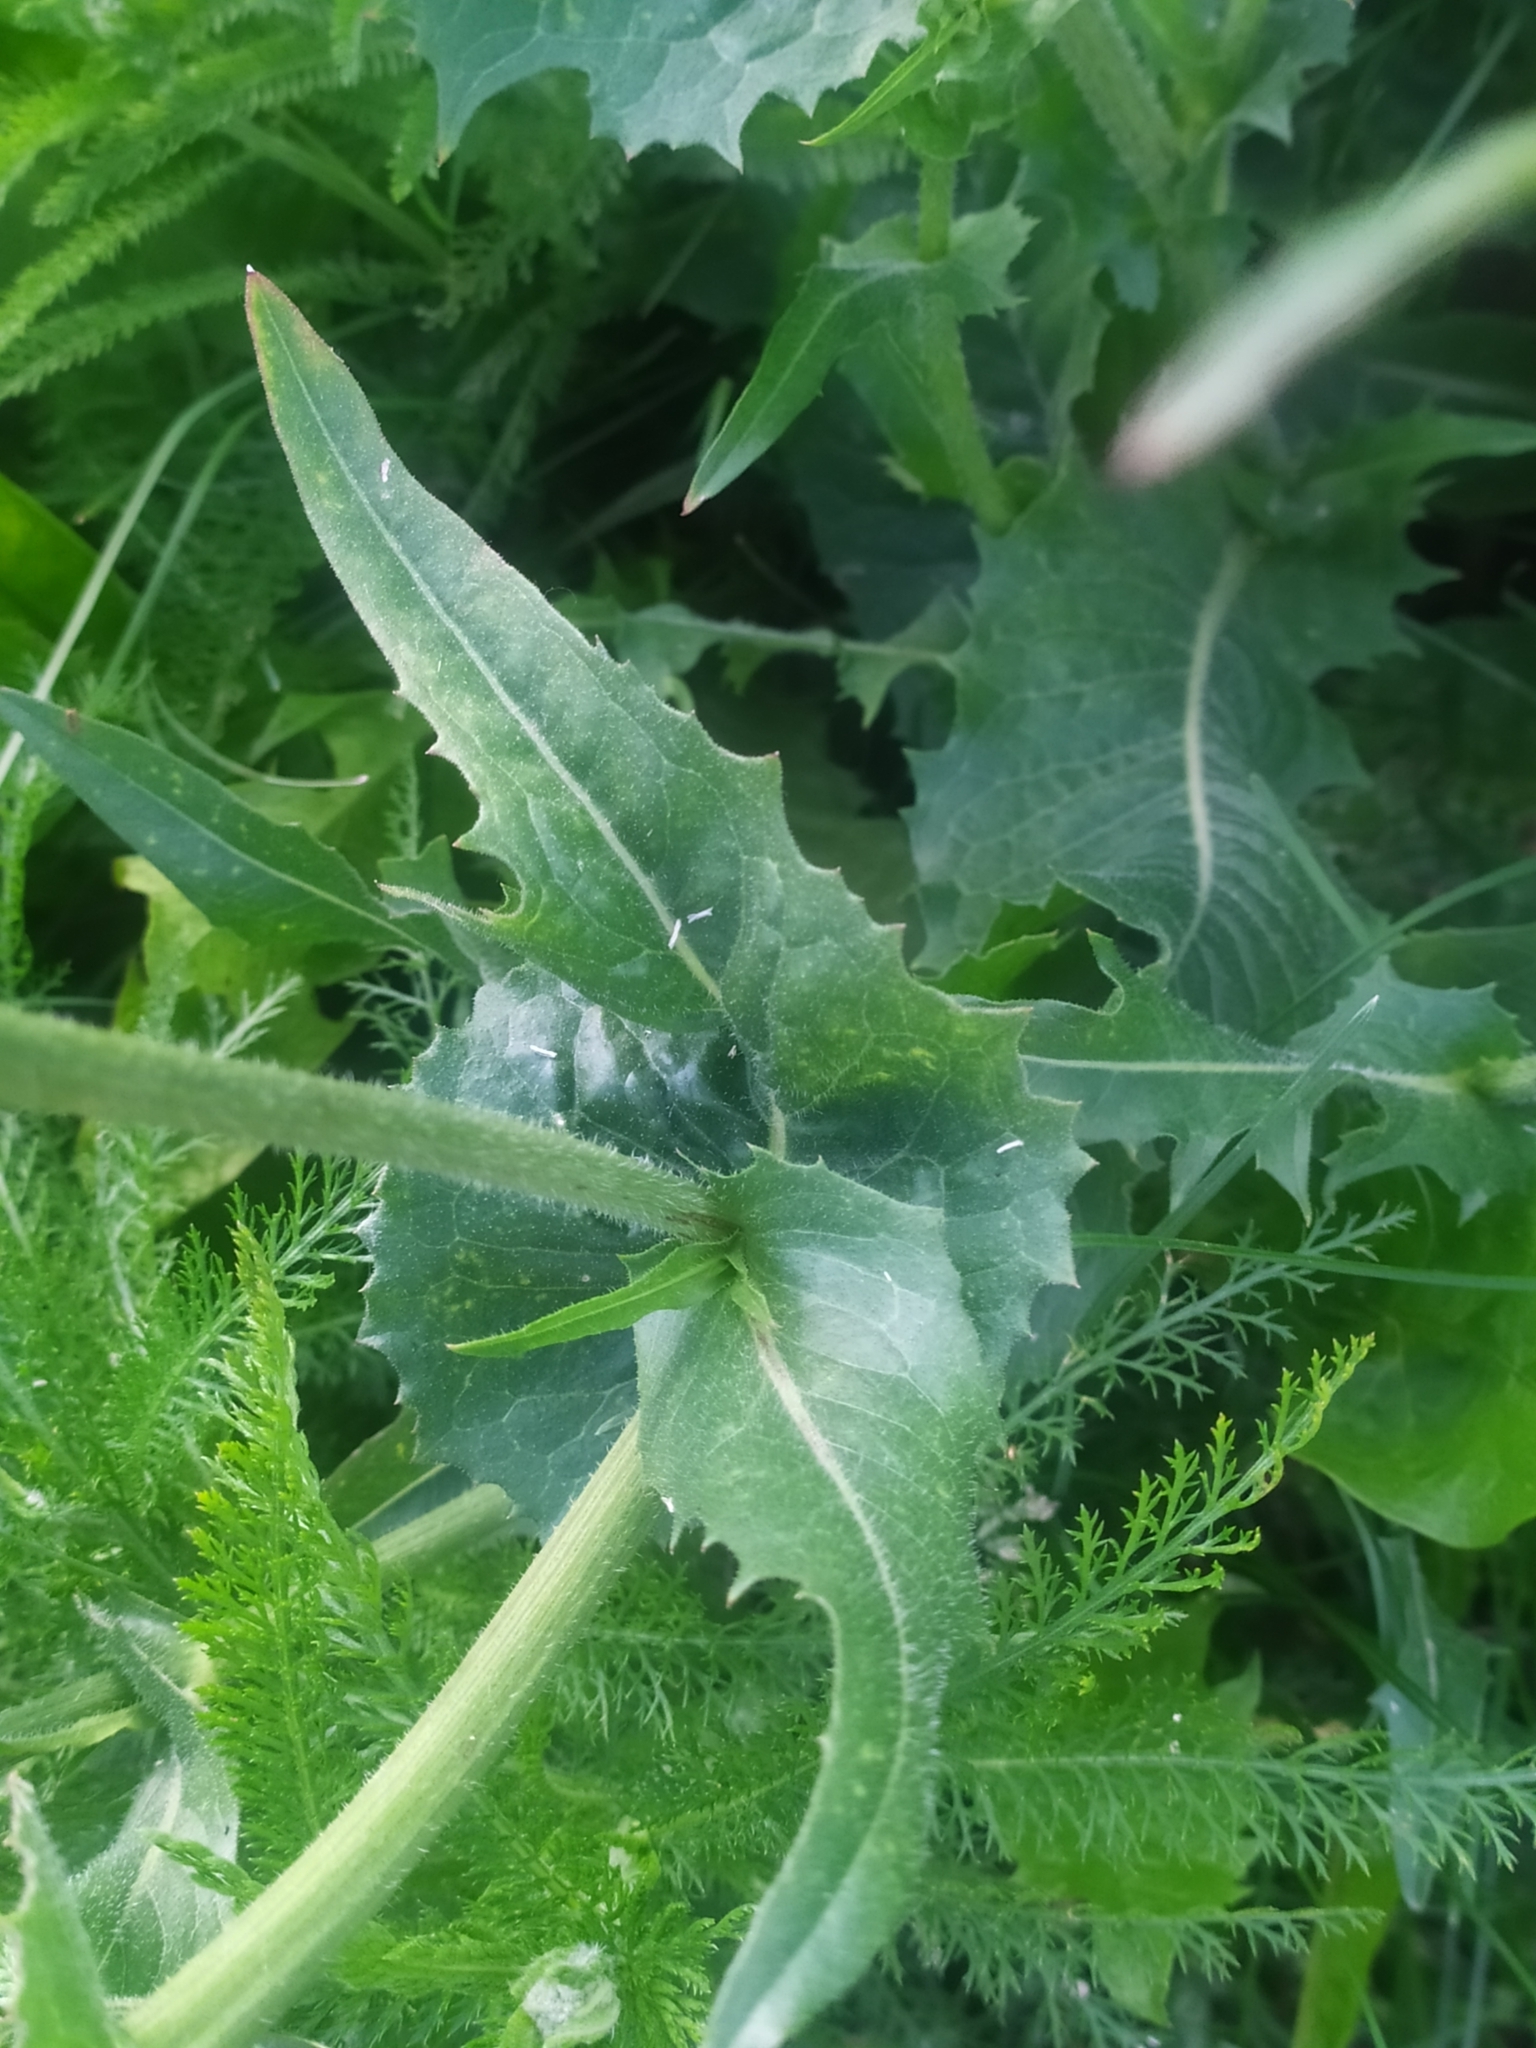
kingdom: Plantae
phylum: Tracheophyta
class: Magnoliopsida
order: Asterales
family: Asteraceae
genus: Cichorium
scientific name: Cichorium intybus
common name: Chicory
